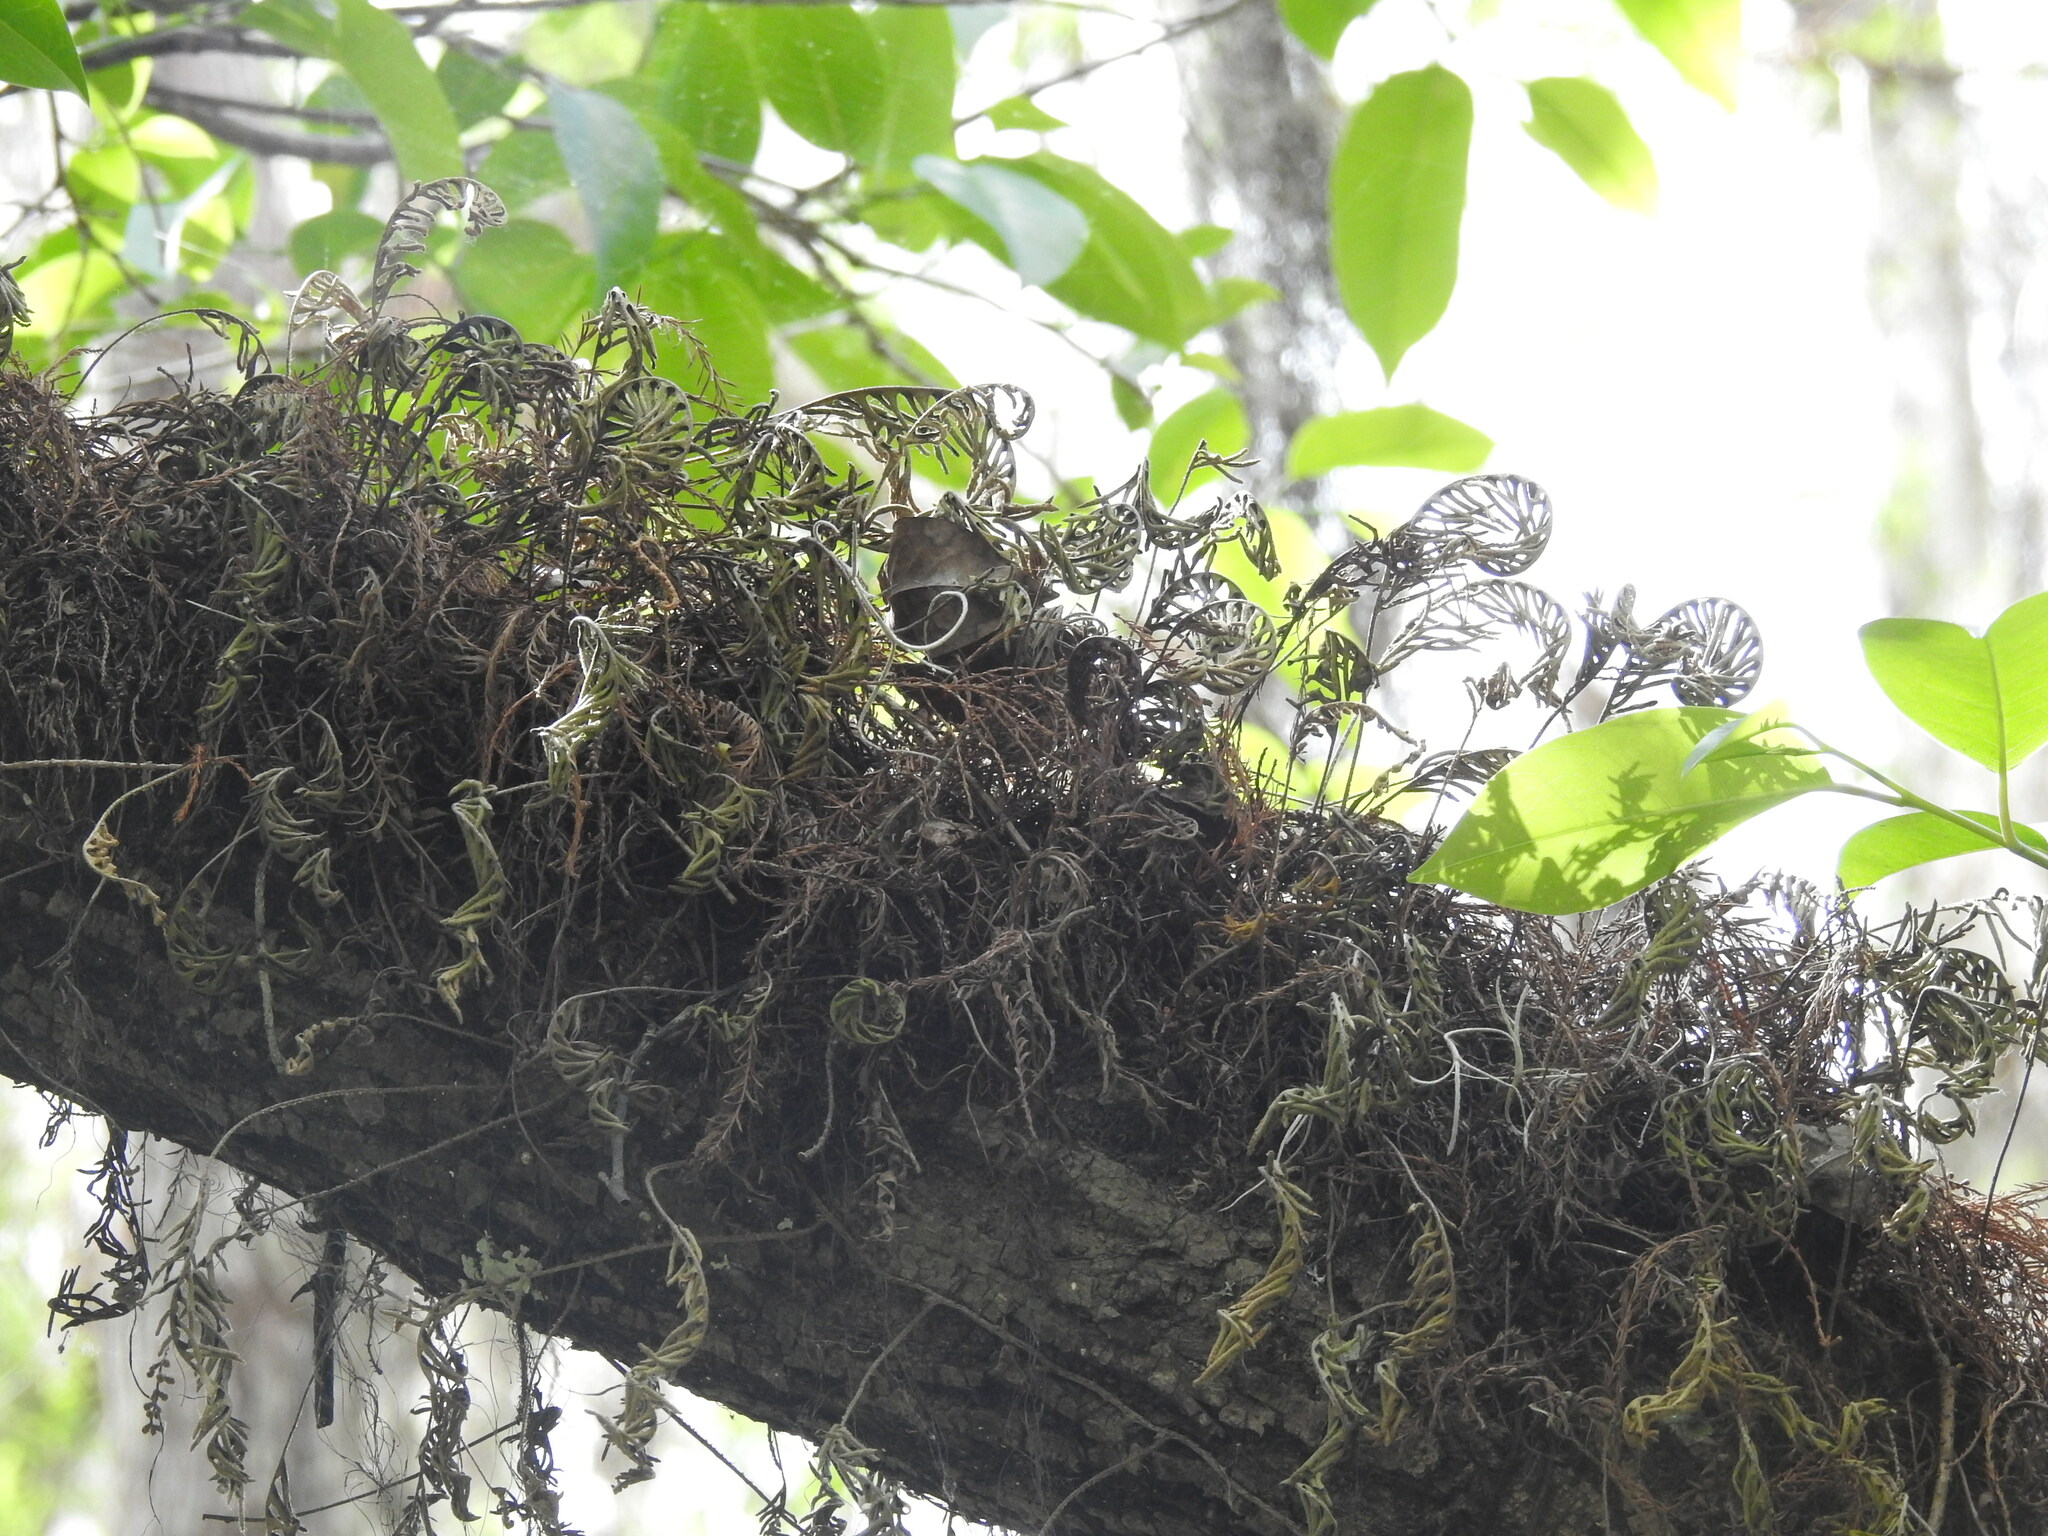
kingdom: Plantae
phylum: Tracheophyta
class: Polypodiopsida
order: Polypodiales
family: Polypodiaceae
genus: Pleopeltis
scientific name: Pleopeltis michauxiana
